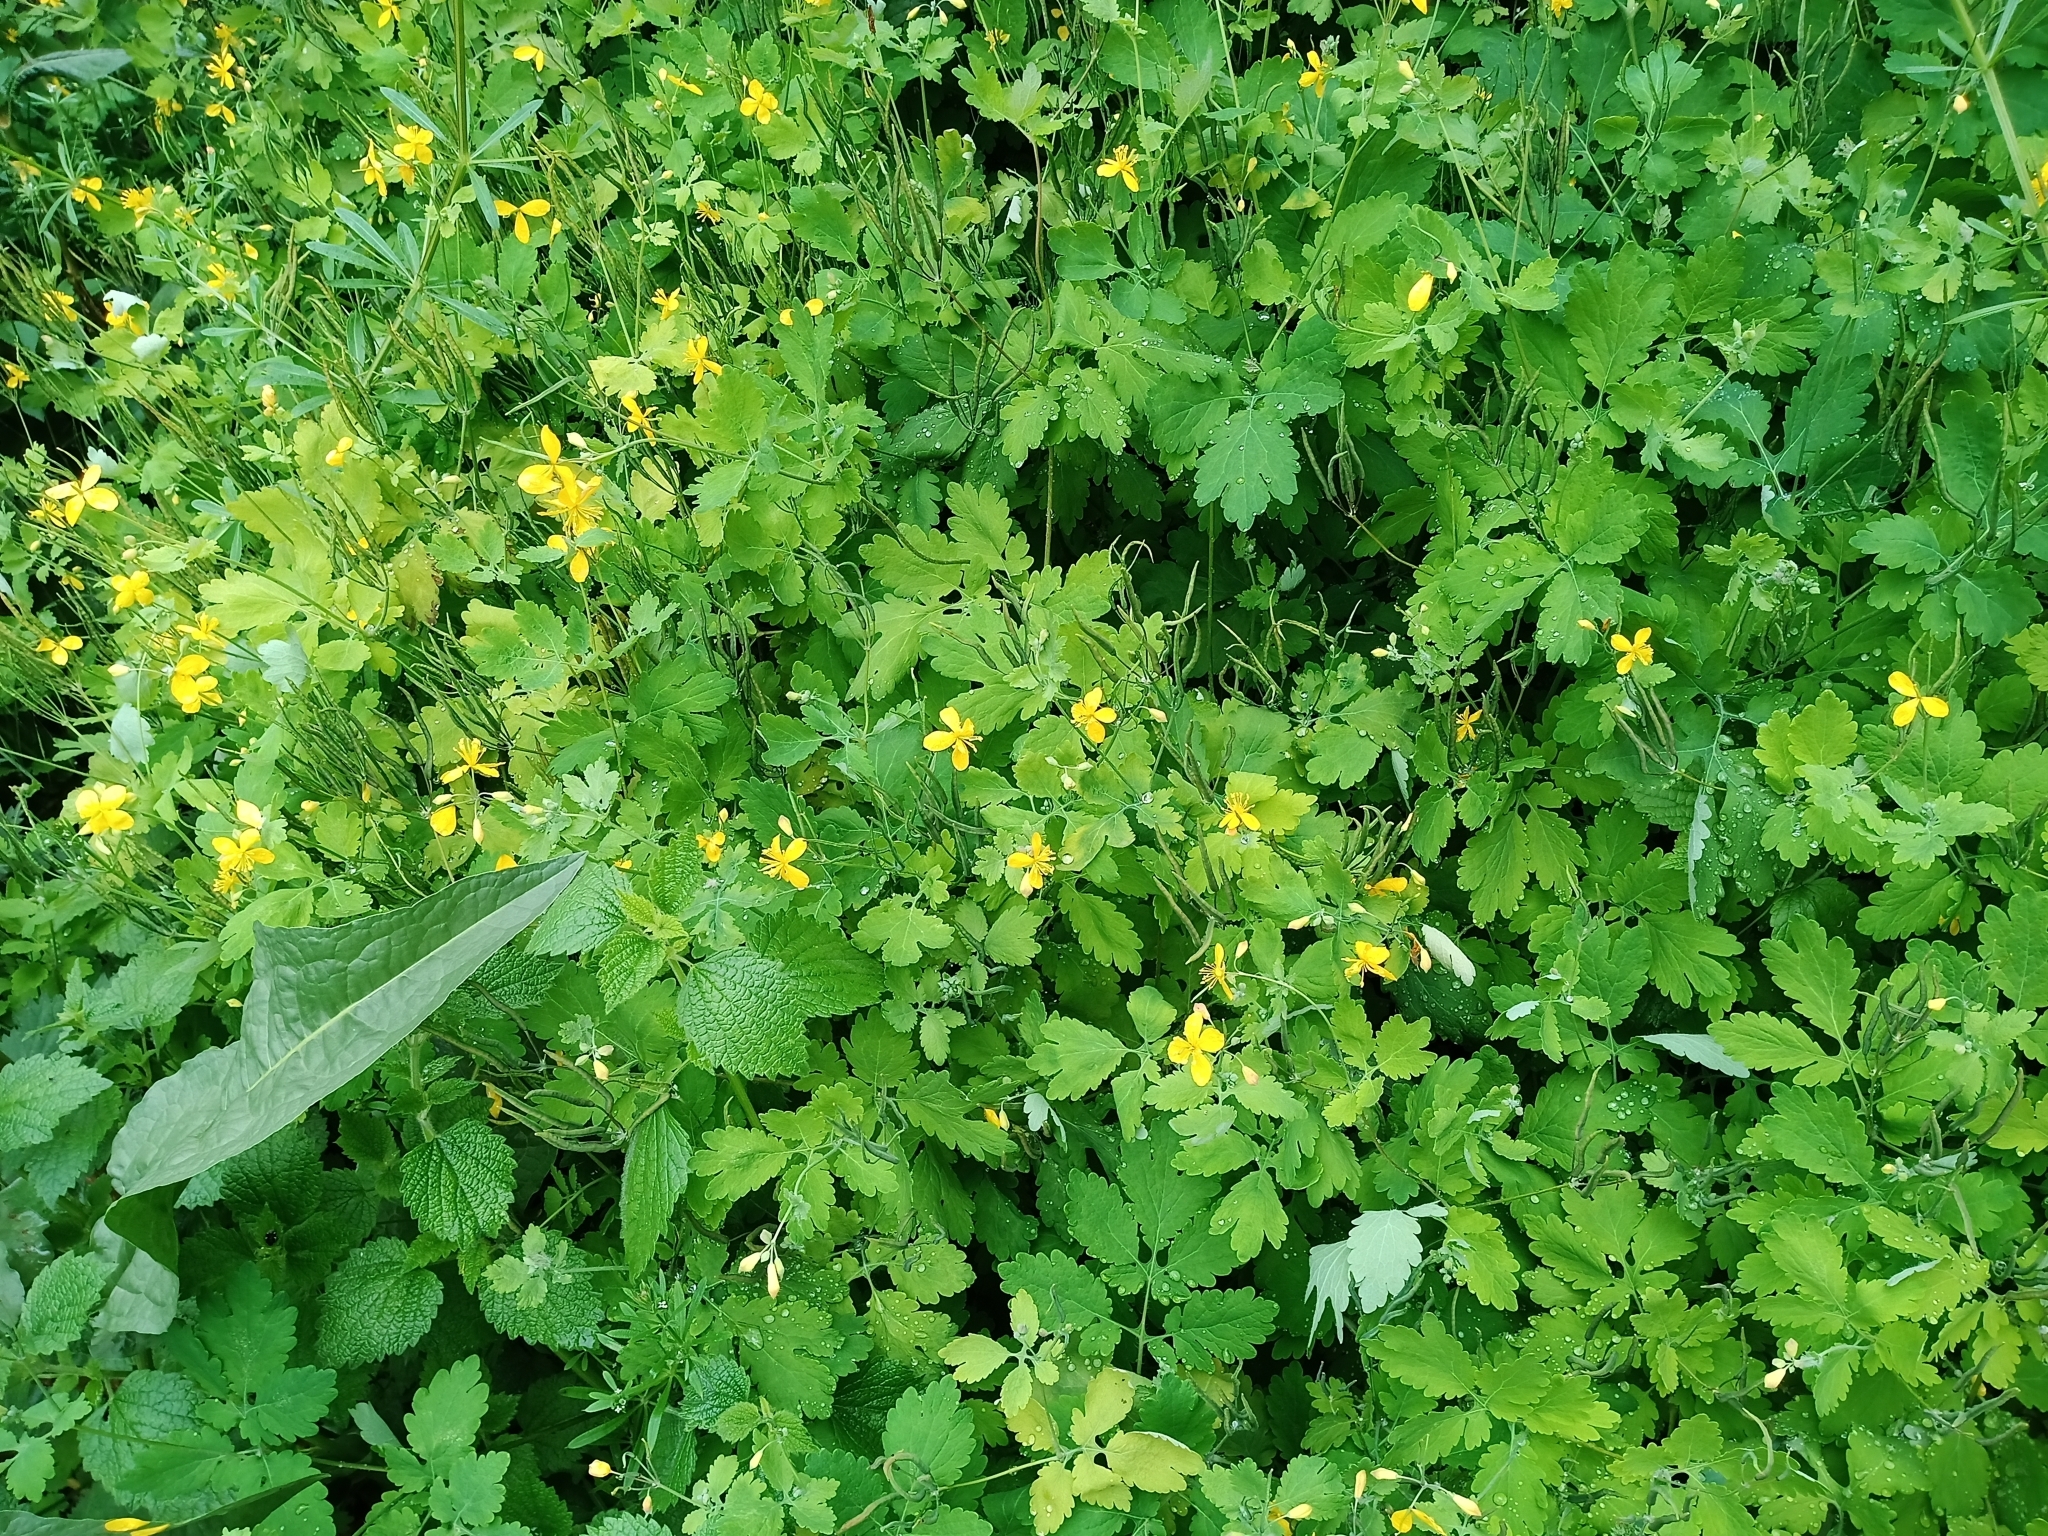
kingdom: Plantae
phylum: Tracheophyta
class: Magnoliopsida
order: Ranunculales
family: Papaveraceae
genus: Chelidonium
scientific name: Chelidonium majus
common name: Greater celandine
